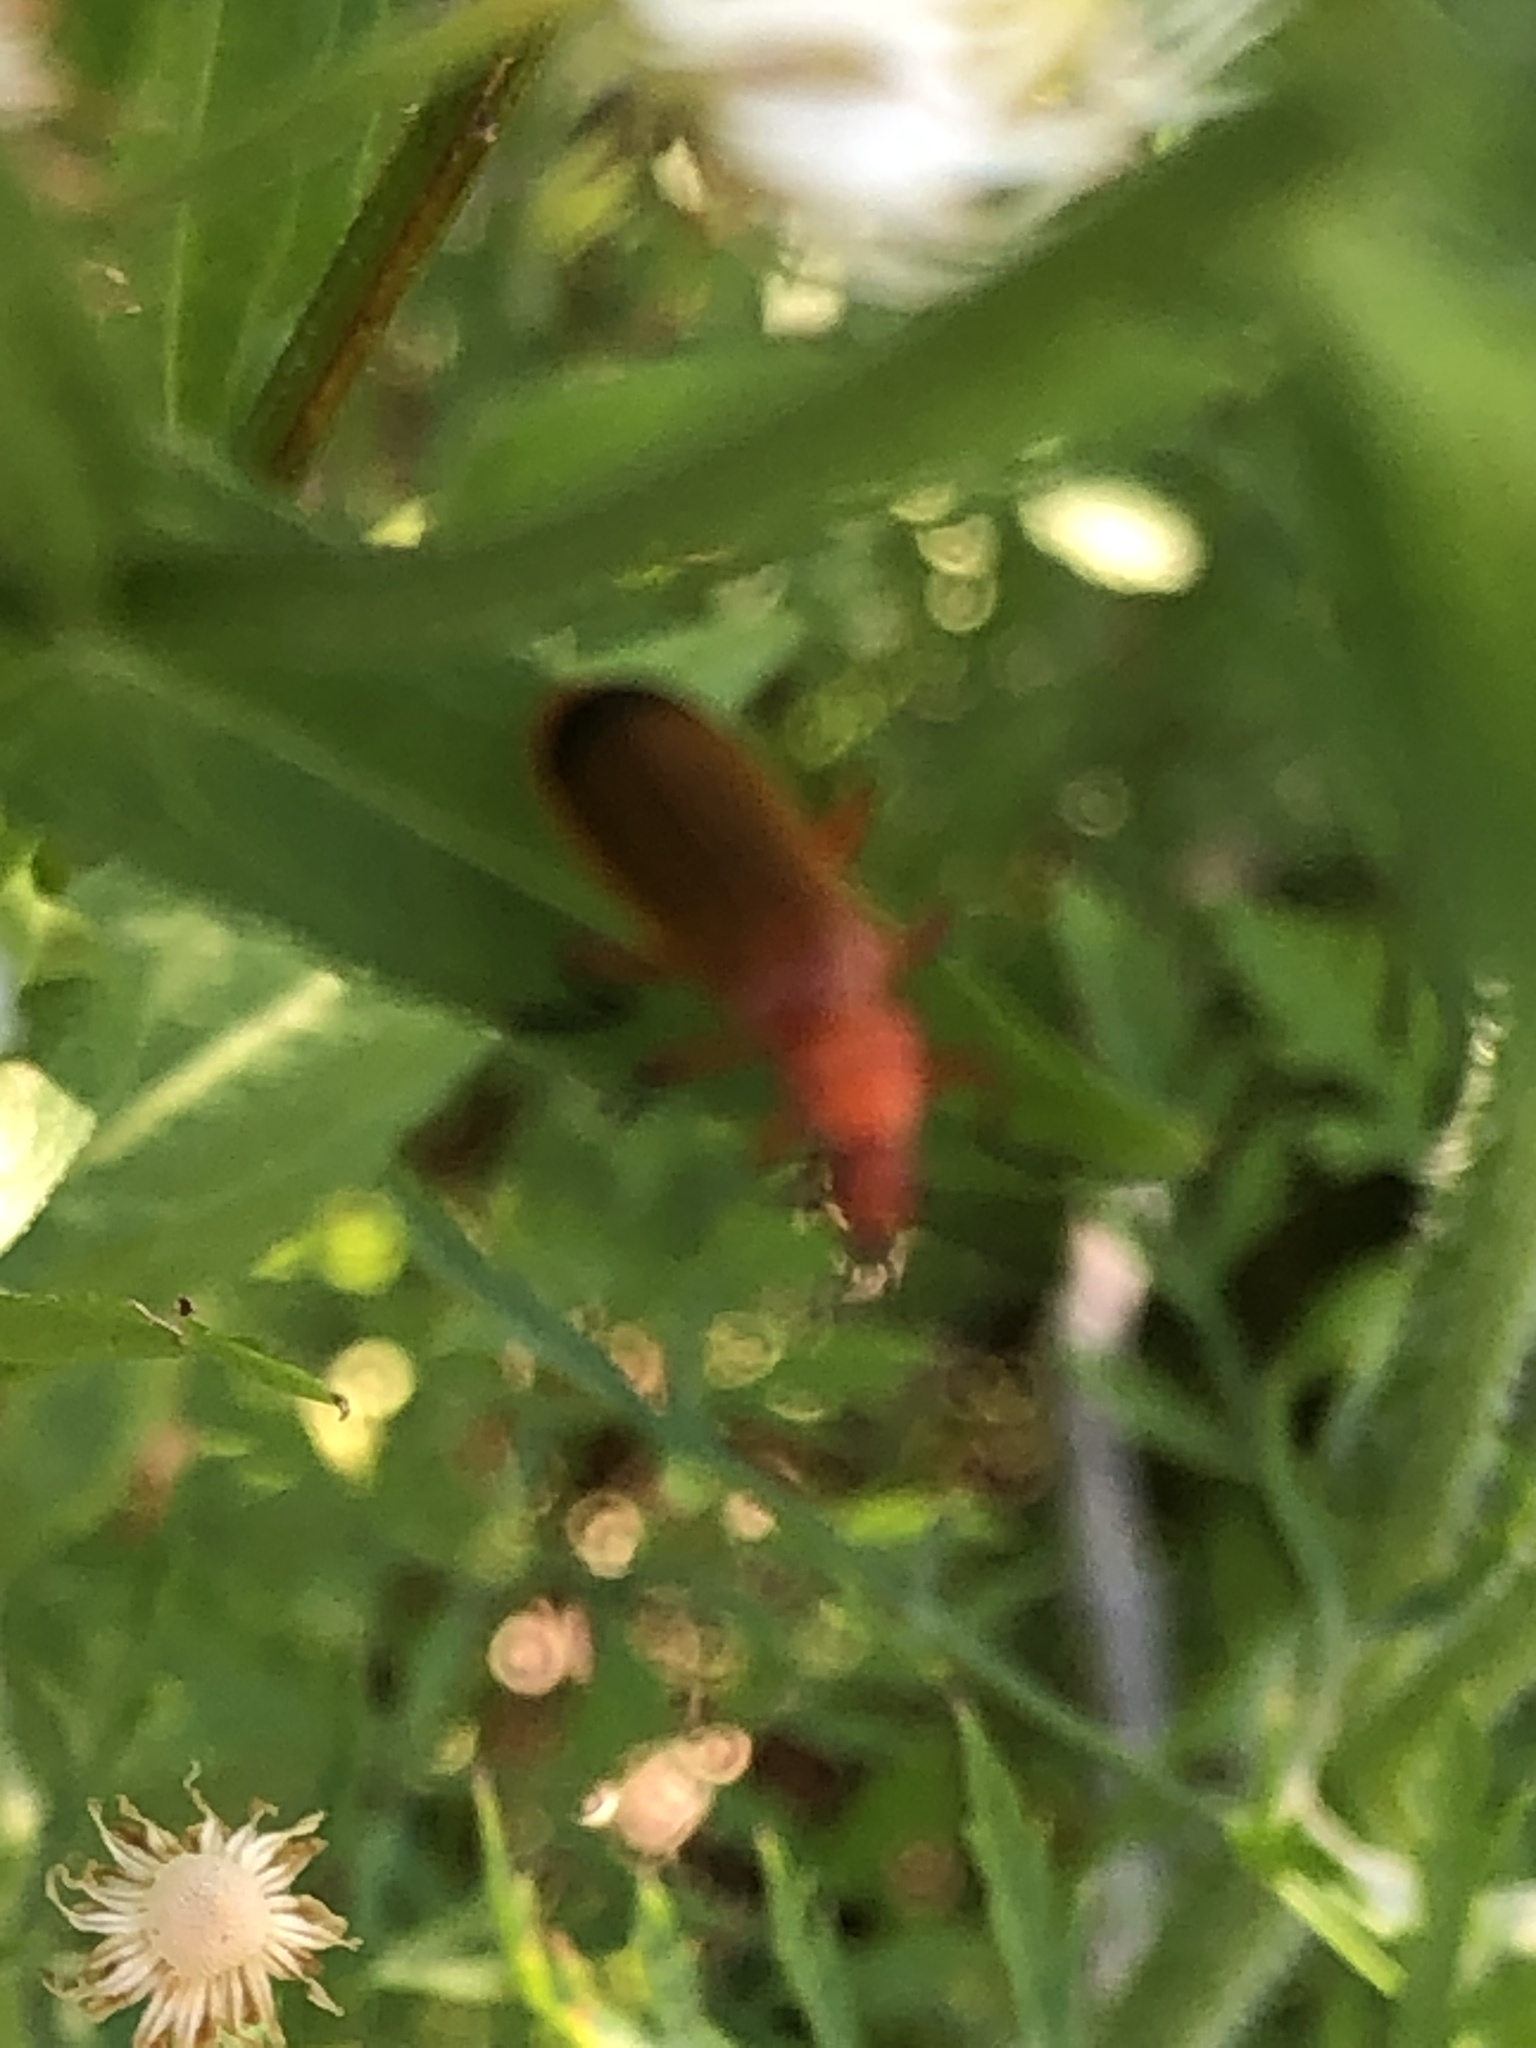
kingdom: Animalia
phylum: Arthropoda
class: Insecta
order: Coleoptera
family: Cantharidae
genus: Rhagonycha
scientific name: Rhagonycha fulva
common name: Common red soldier beetle
